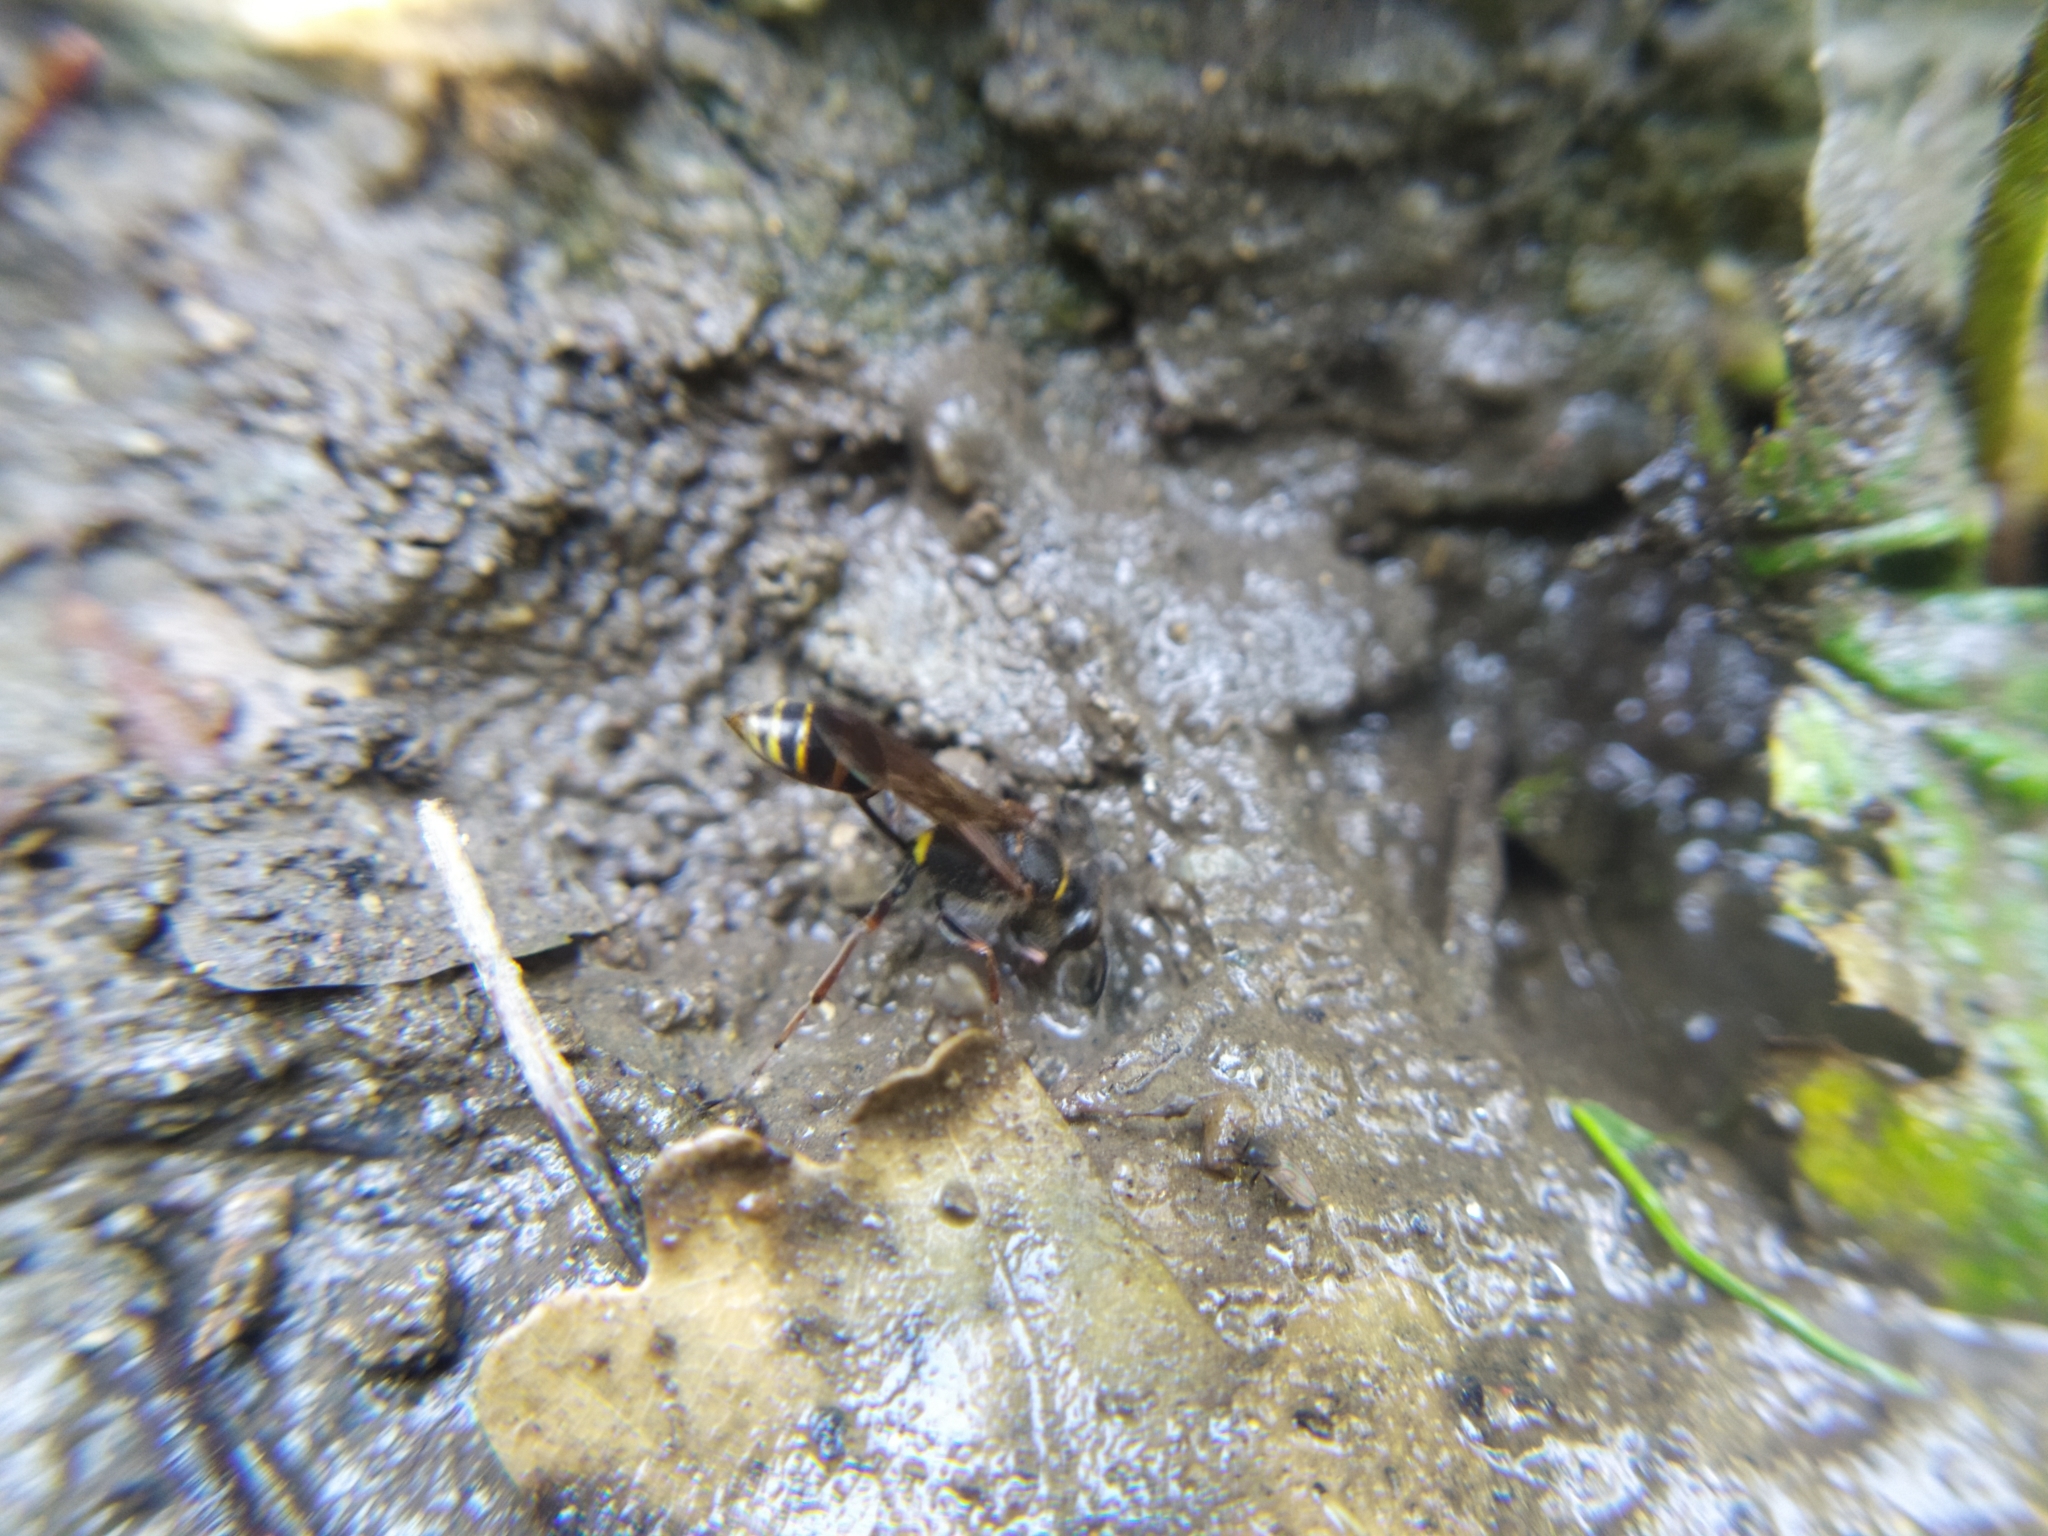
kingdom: Animalia
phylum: Arthropoda
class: Insecta
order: Hymenoptera
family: Sphecidae
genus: Sceliphron
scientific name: Sceliphron curvatum
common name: Pèlopèe
